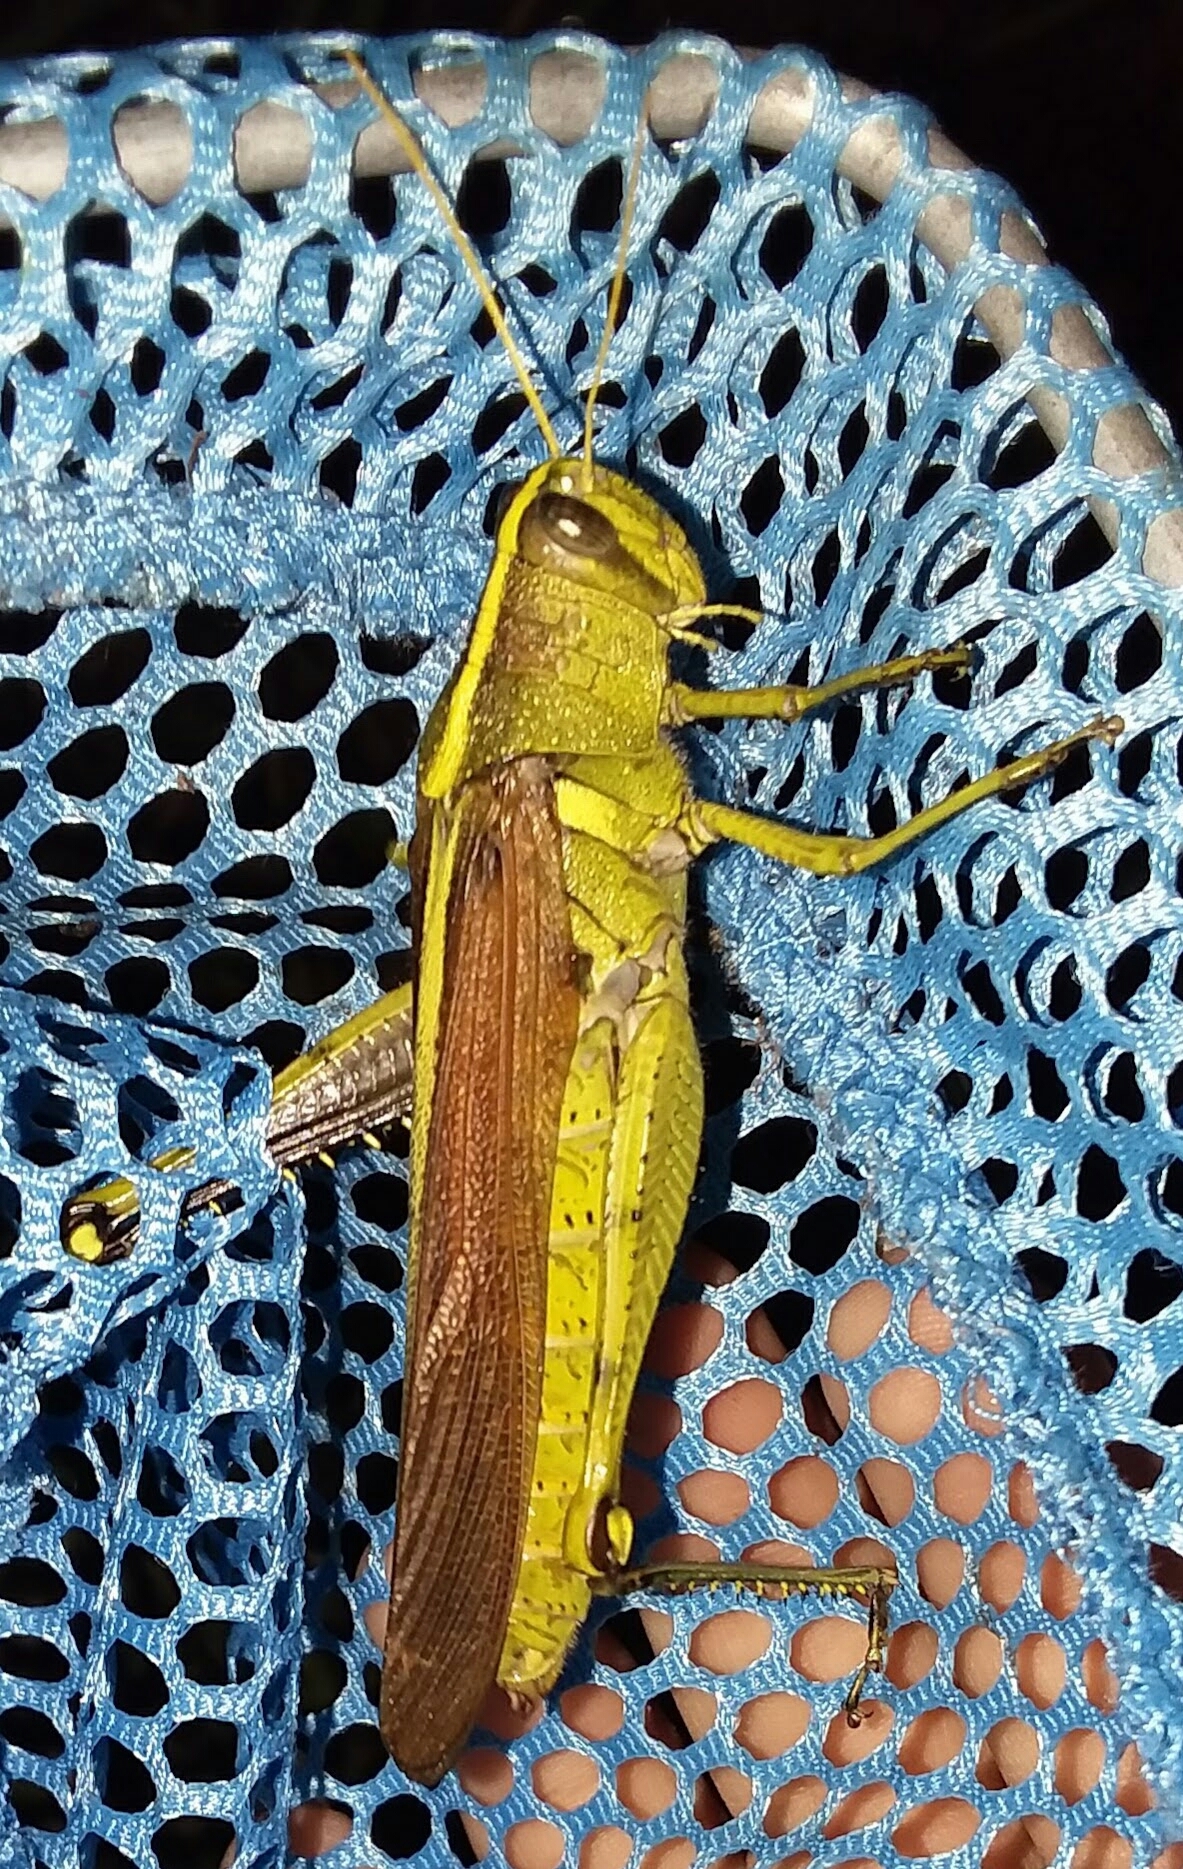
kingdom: Animalia
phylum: Arthropoda
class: Insecta
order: Orthoptera
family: Acrididae
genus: Schistocerca
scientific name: Schistocerca obscura
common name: Obscure bird grasshopper
